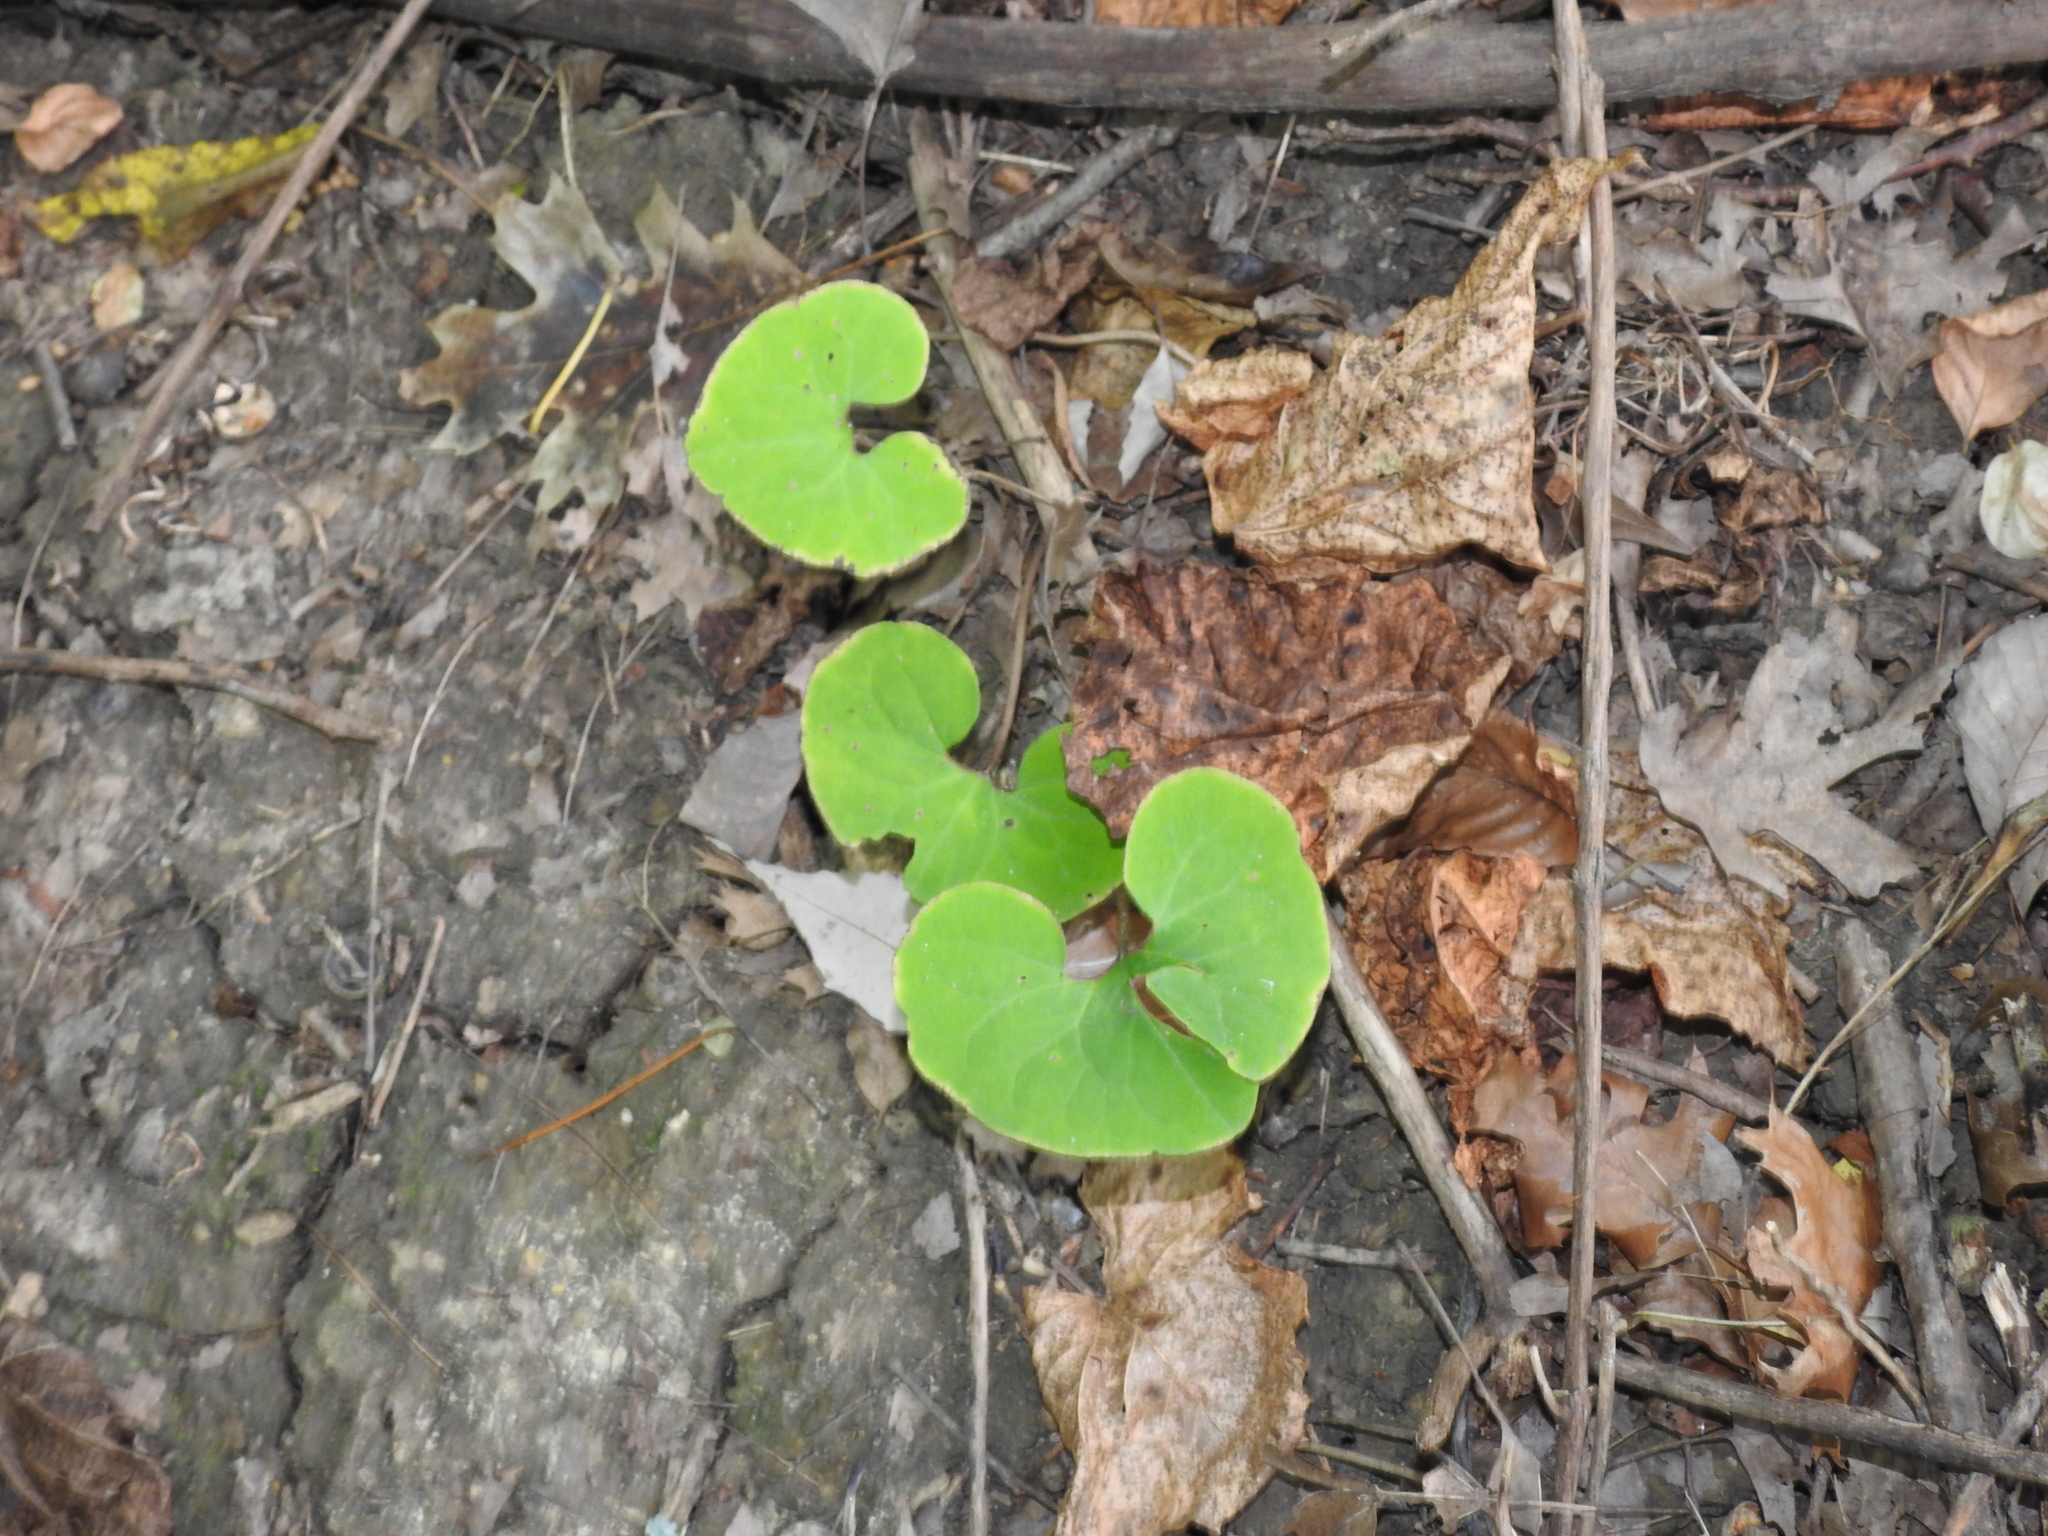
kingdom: Plantae
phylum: Tracheophyta
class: Magnoliopsida
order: Piperales
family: Aristolochiaceae
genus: Asarum
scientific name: Asarum canadense
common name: Wild ginger
